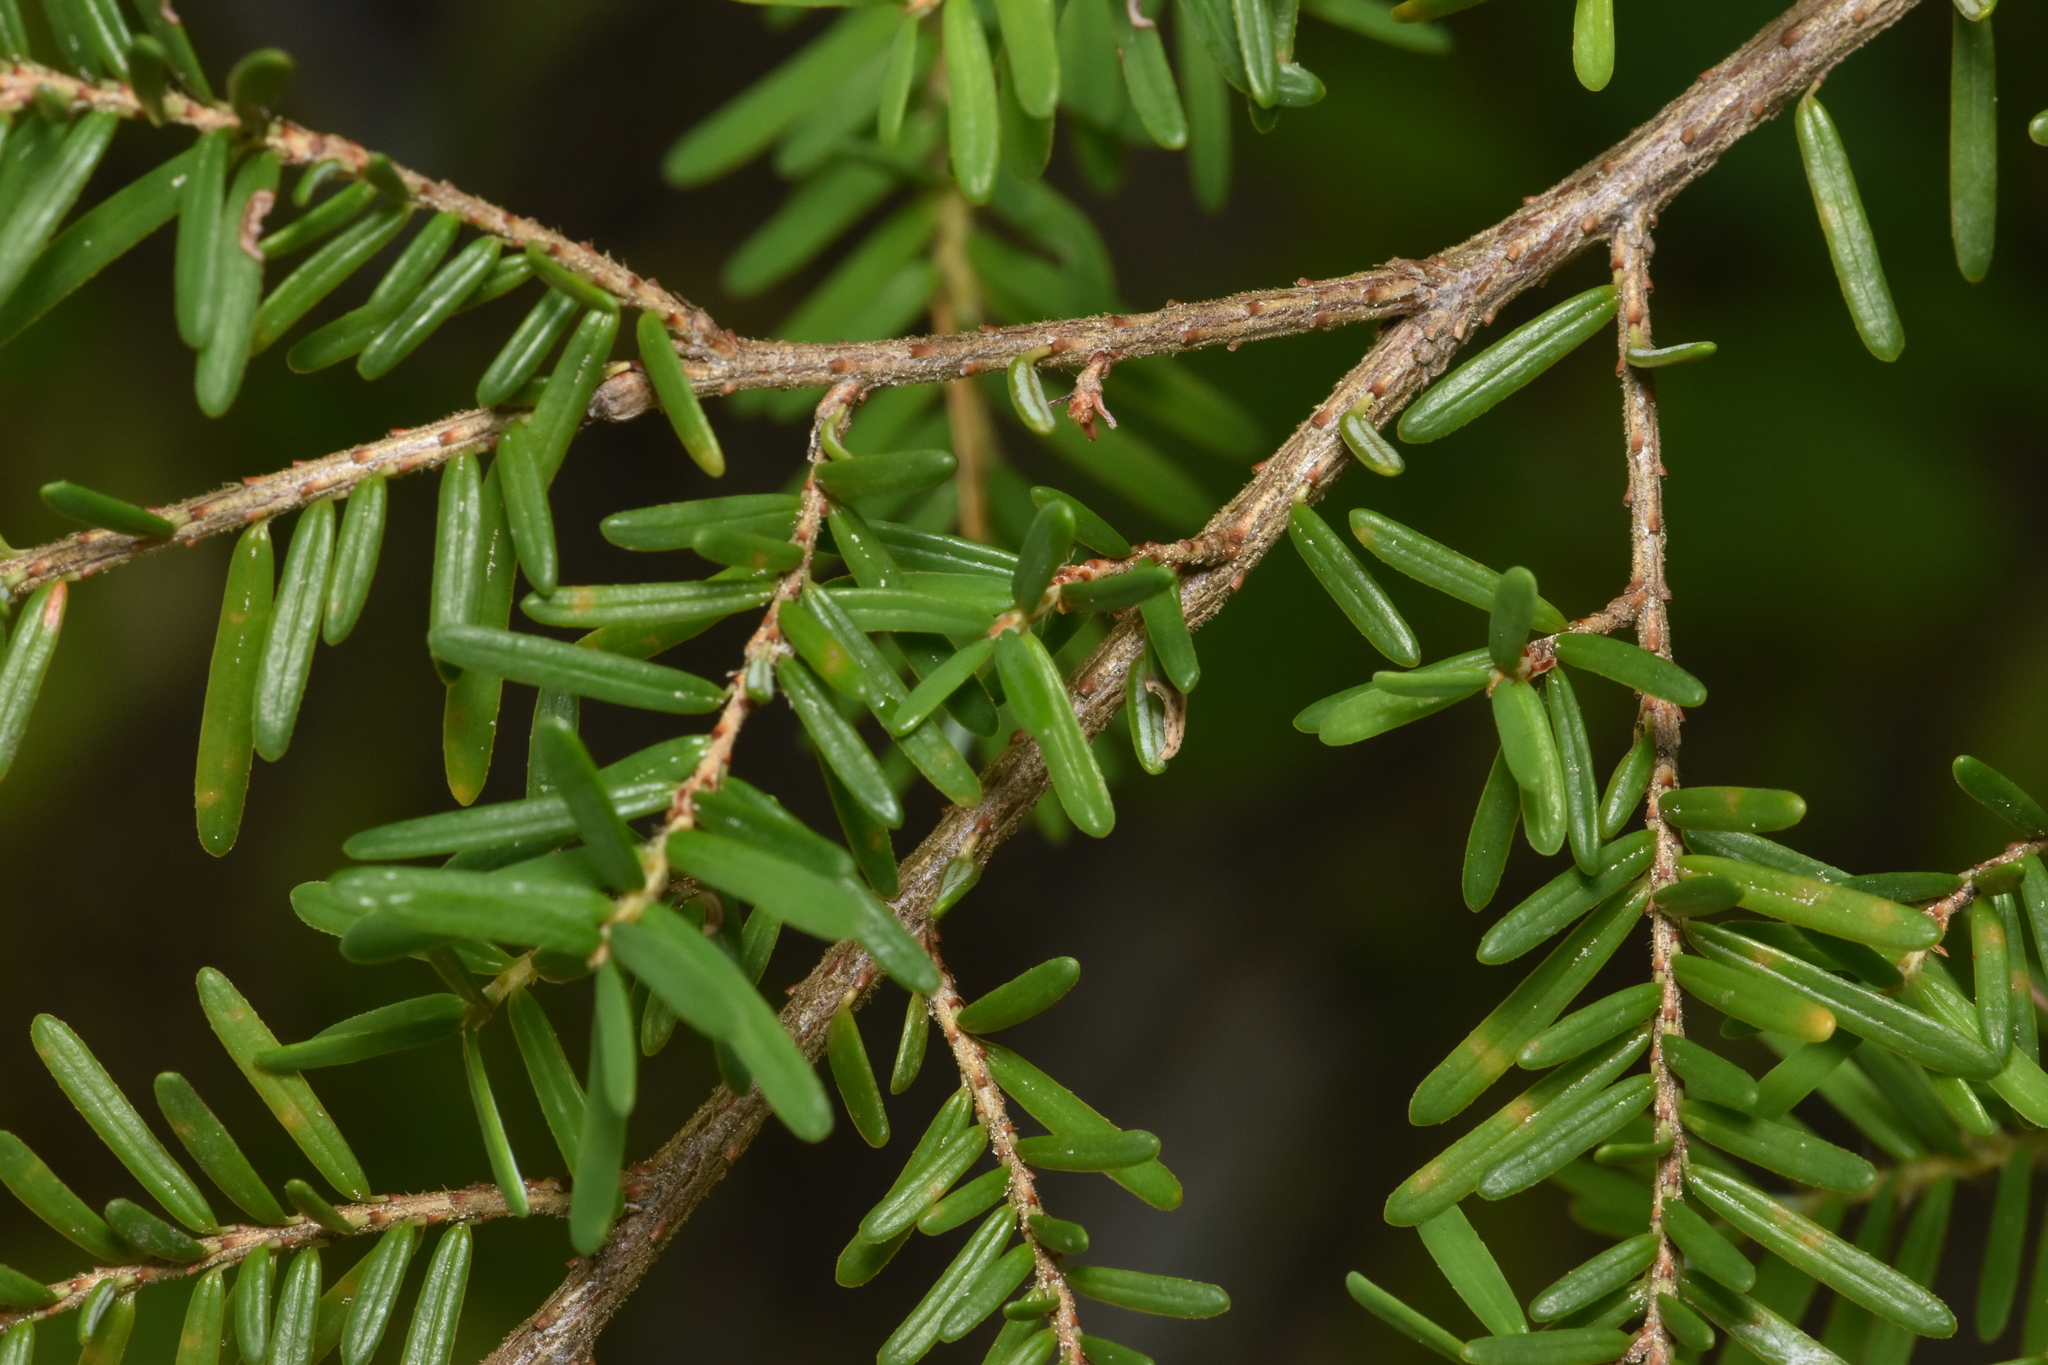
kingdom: Plantae
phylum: Tracheophyta
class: Pinopsida
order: Pinales
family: Pinaceae
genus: Tsuga
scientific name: Tsuga heterophylla
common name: Western hemlock
